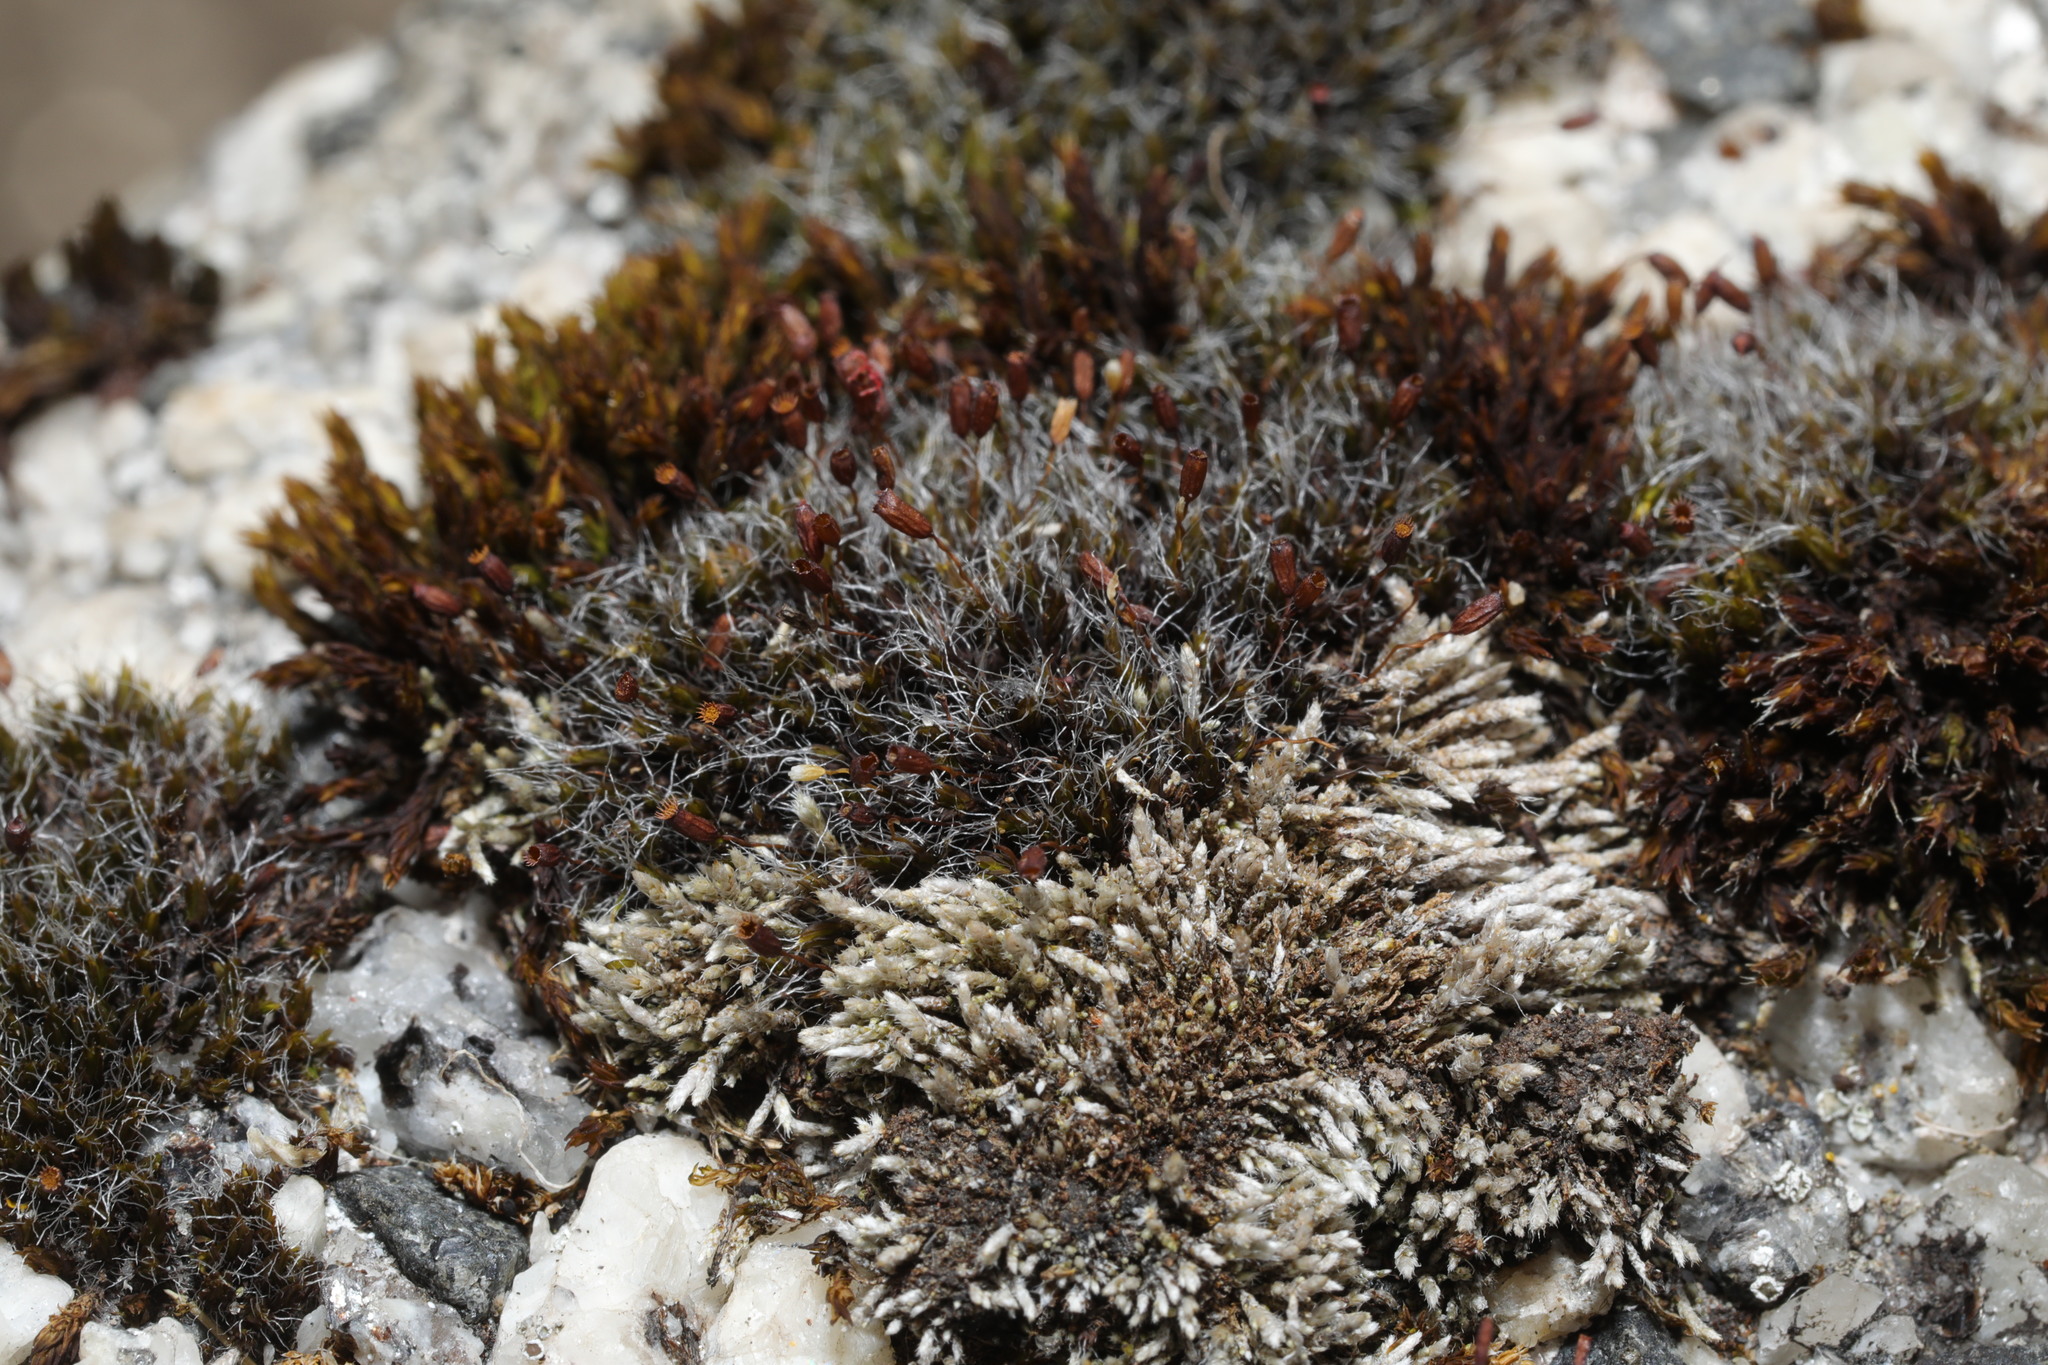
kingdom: Plantae
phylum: Bryophyta
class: Bryopsida
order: Grimmiales
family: Grimmiaceae
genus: Grimmia
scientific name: Grimmia pulvinata
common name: Grey-cushioned grimmia
